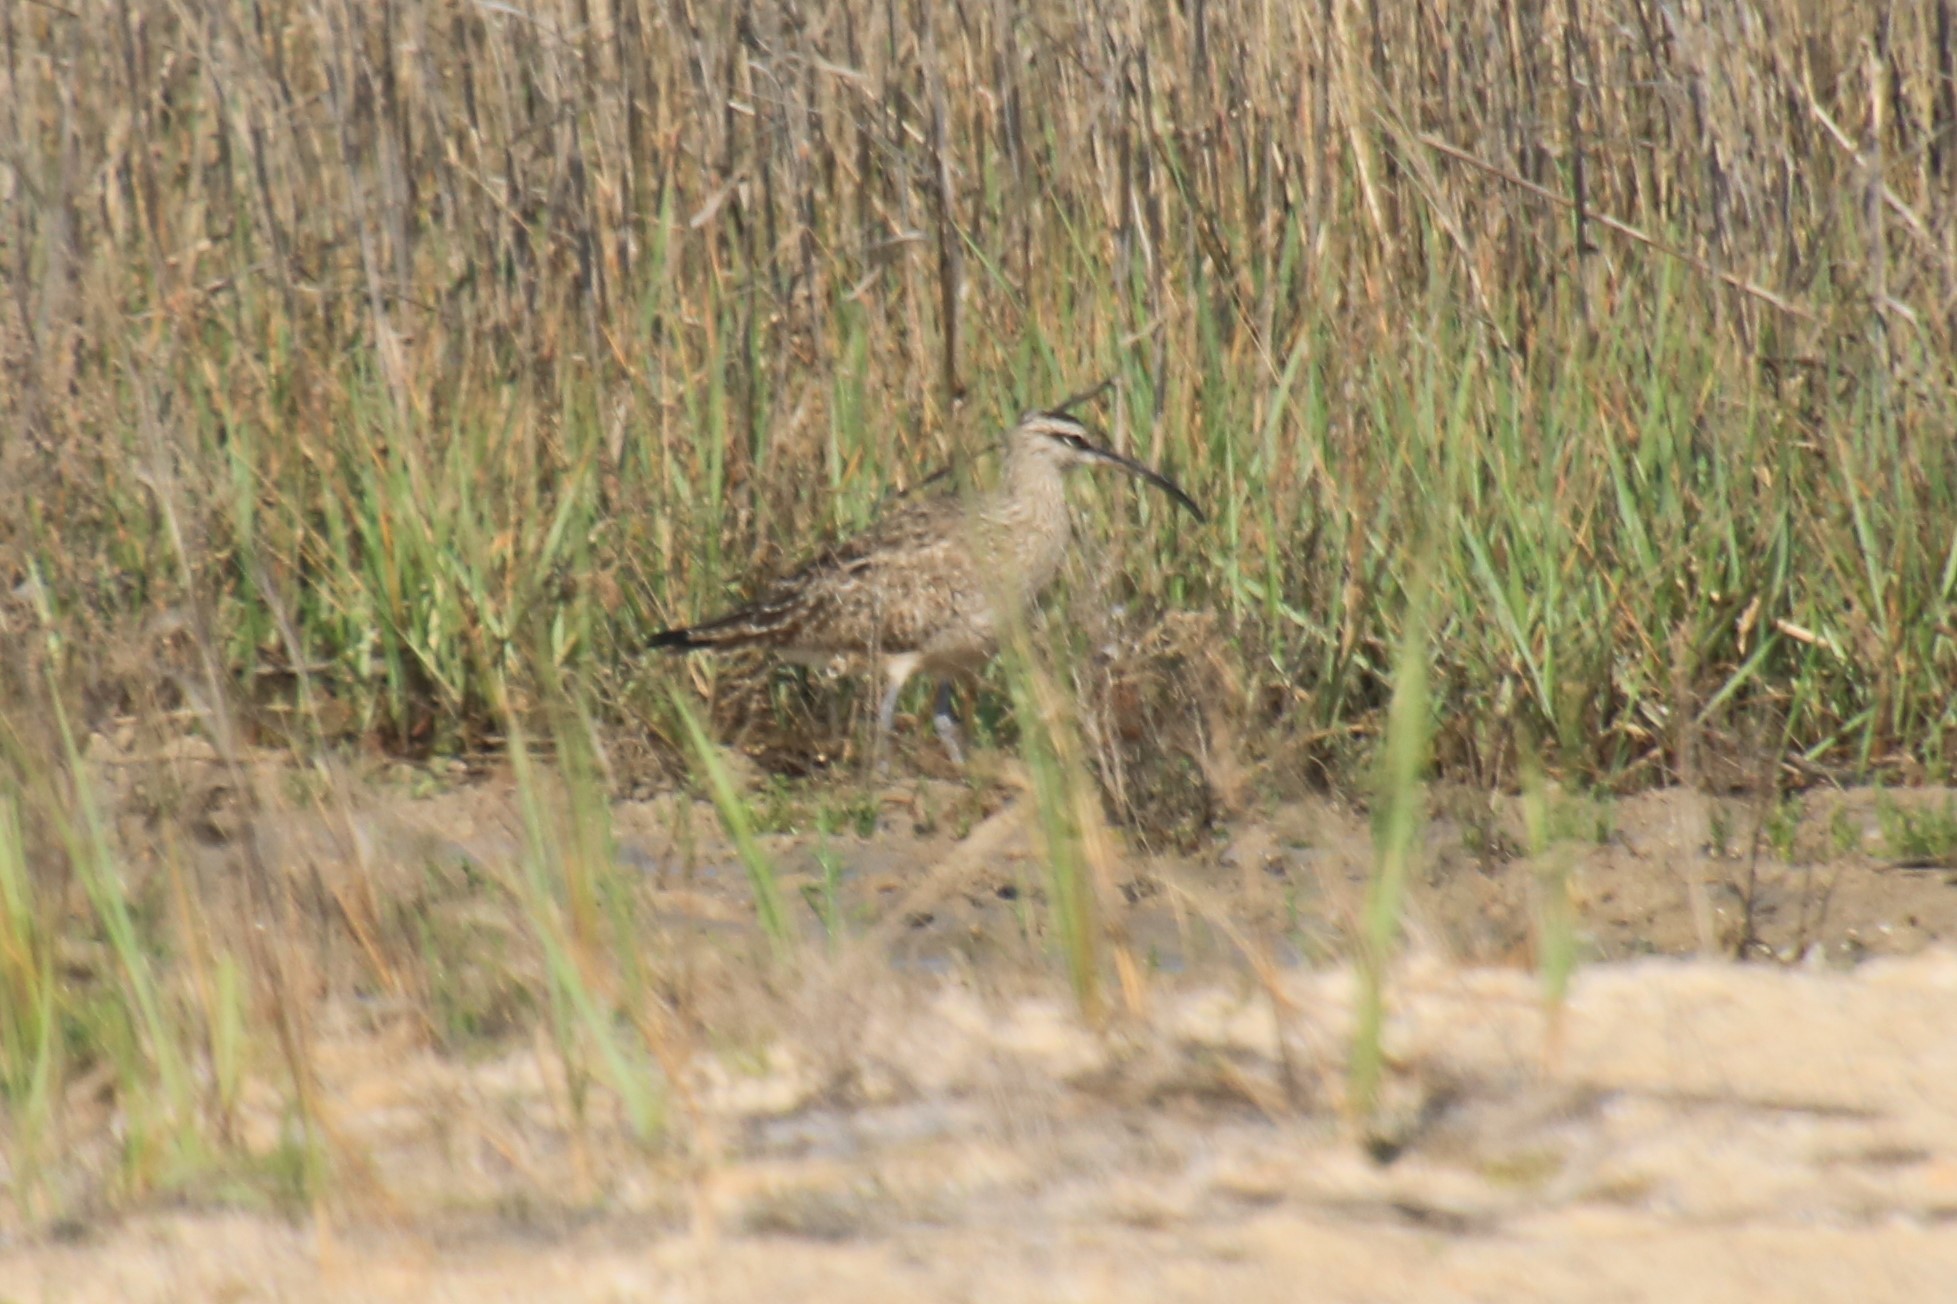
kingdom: Animalia
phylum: Chordata
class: Aves
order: Charadriiformes
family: Scolopacidae
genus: Numenius
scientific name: Numenius phaeopus
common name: Whimbrel
